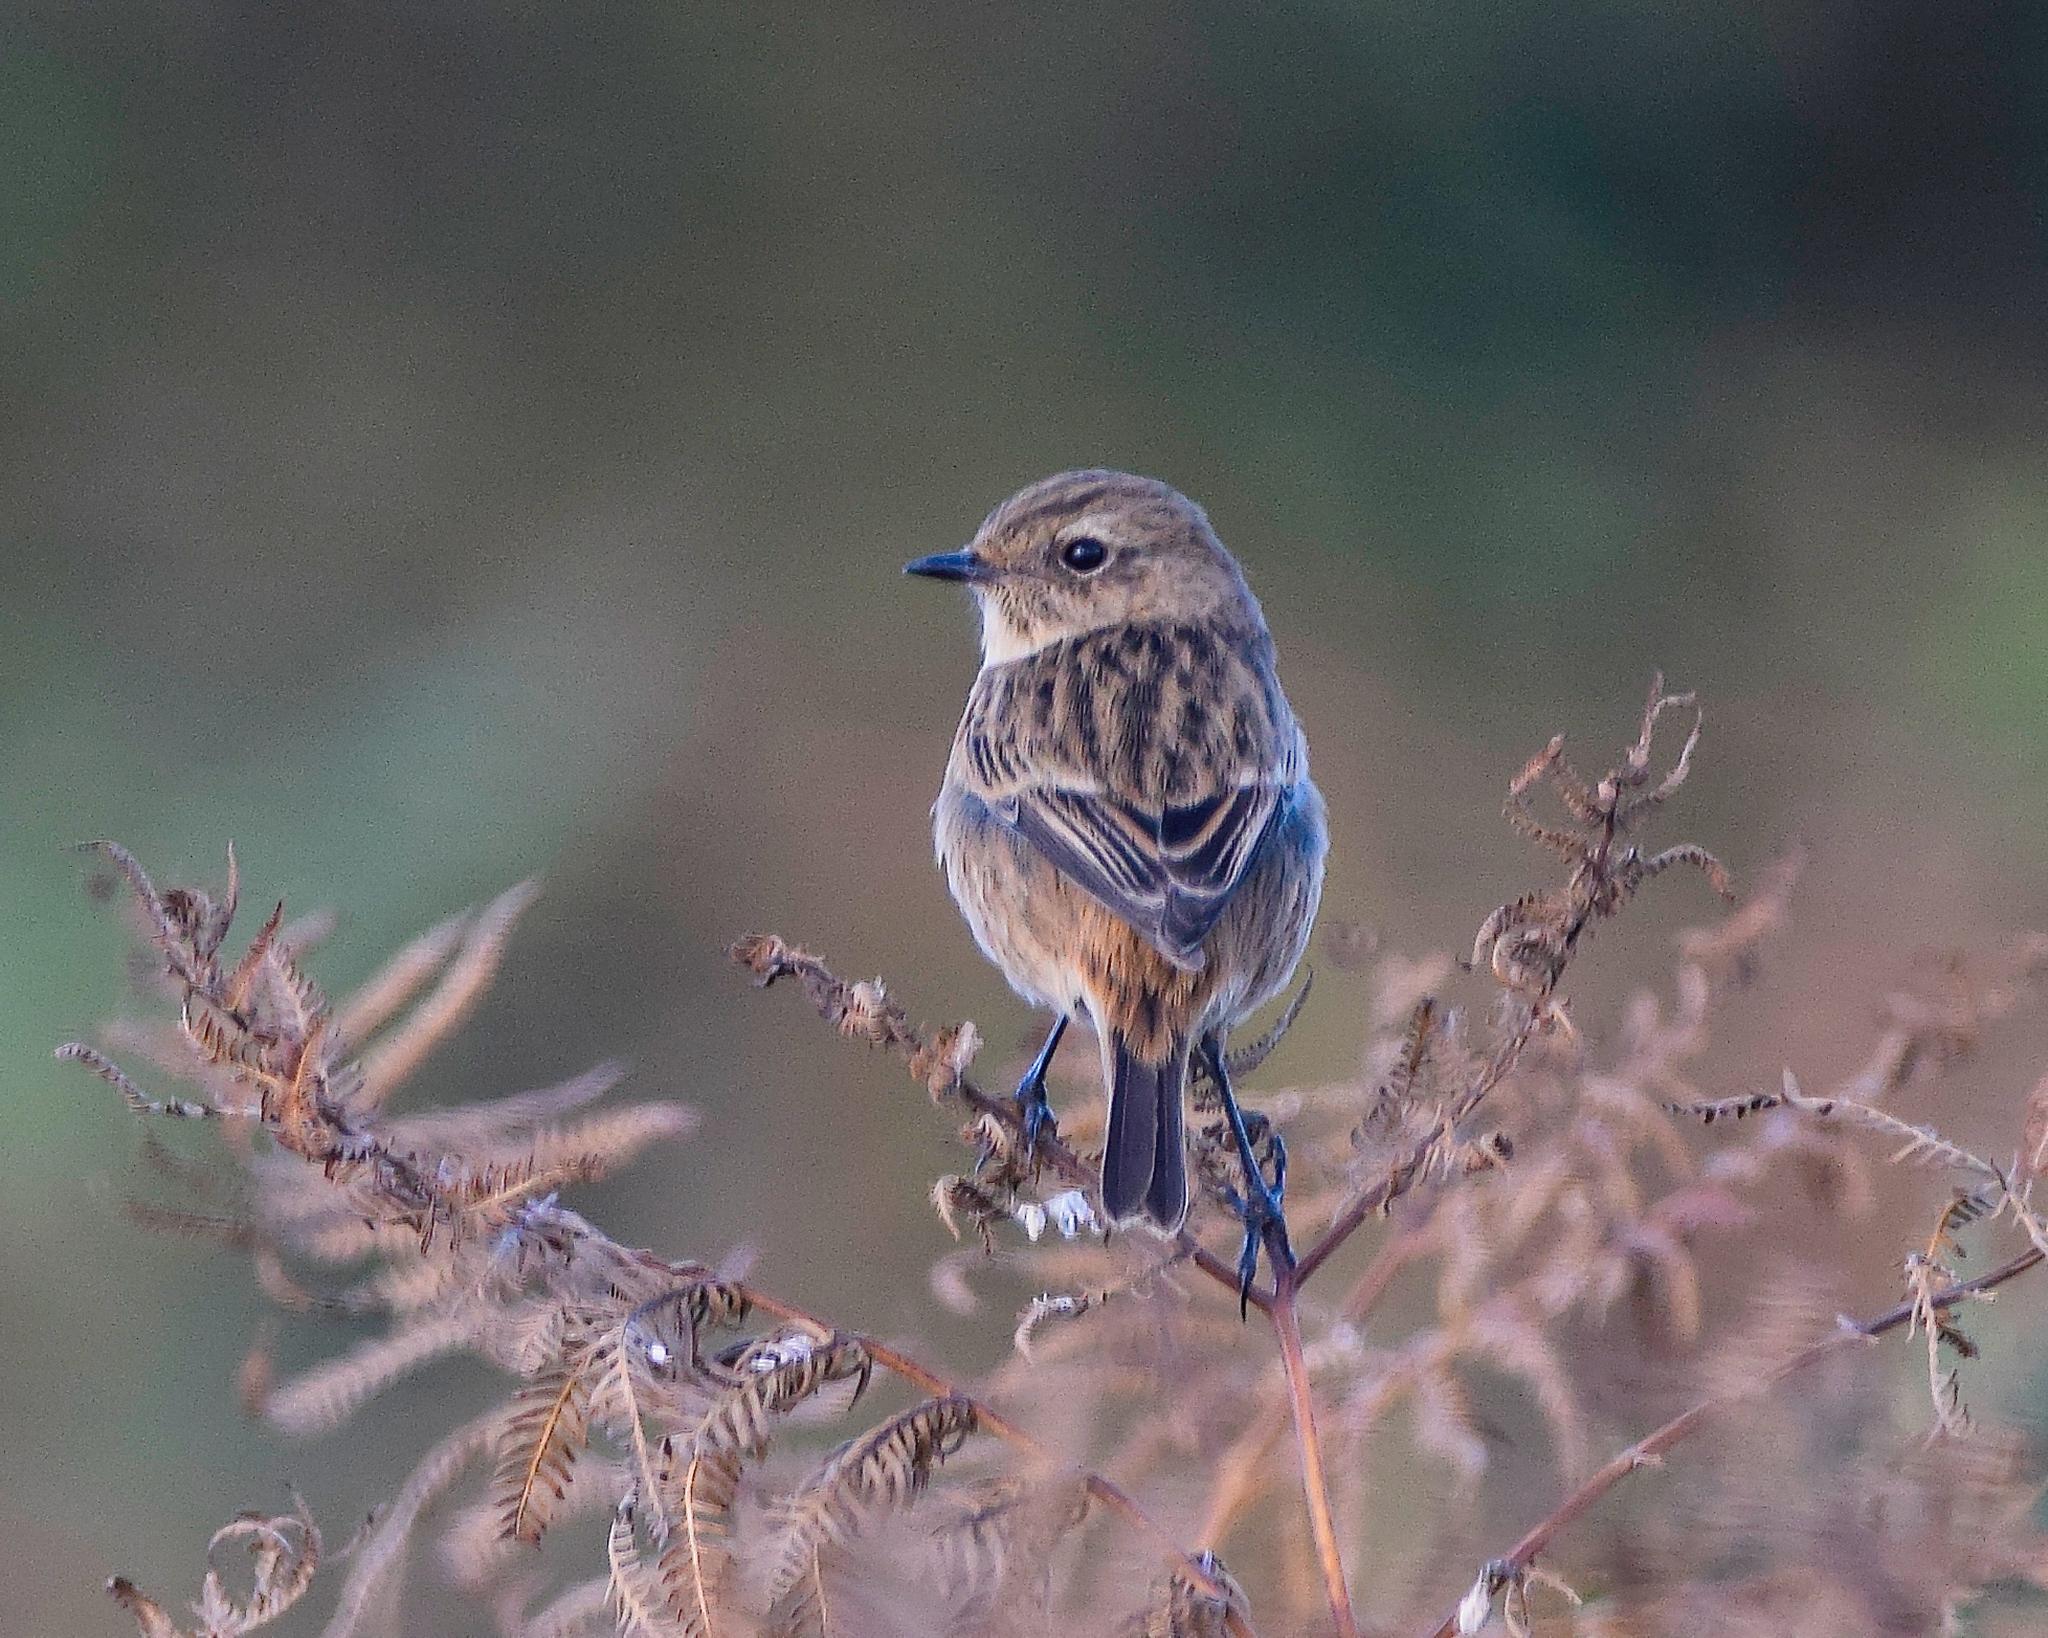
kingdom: Animalia
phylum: Chordata
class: Aves
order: Passeriformes
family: Muscicapidae
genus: Saxicola
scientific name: Saxicola rubicola
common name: European stonechat
